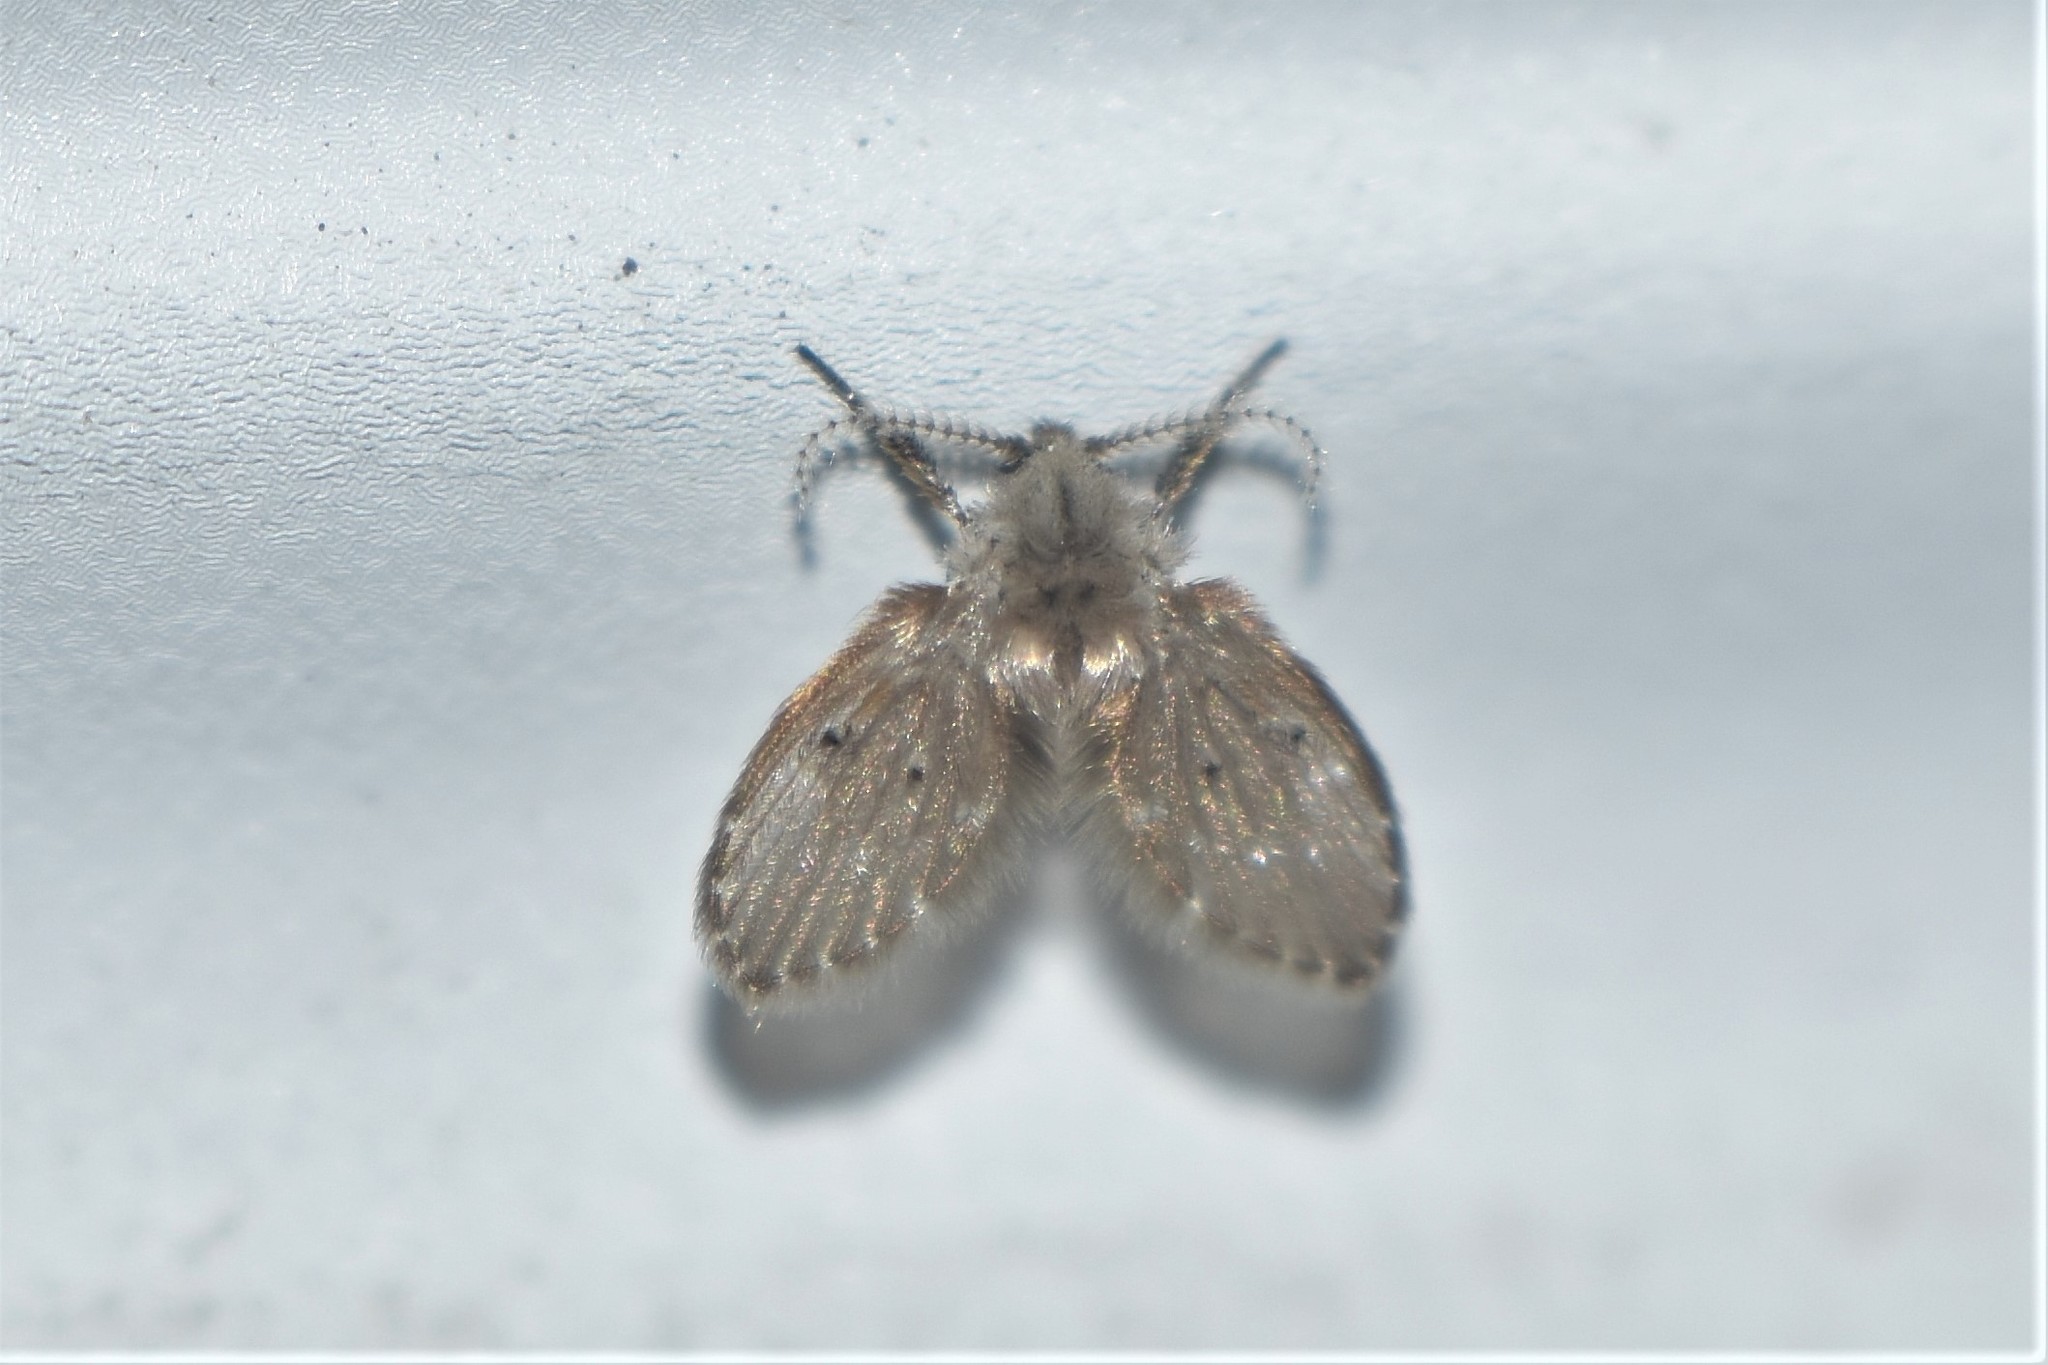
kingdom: Animalia
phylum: Arthropoda
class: Insecta
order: Diptera
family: Psychodidae
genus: Clogmia
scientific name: Clogmia albipunctatus
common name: White-spotted moth fly
